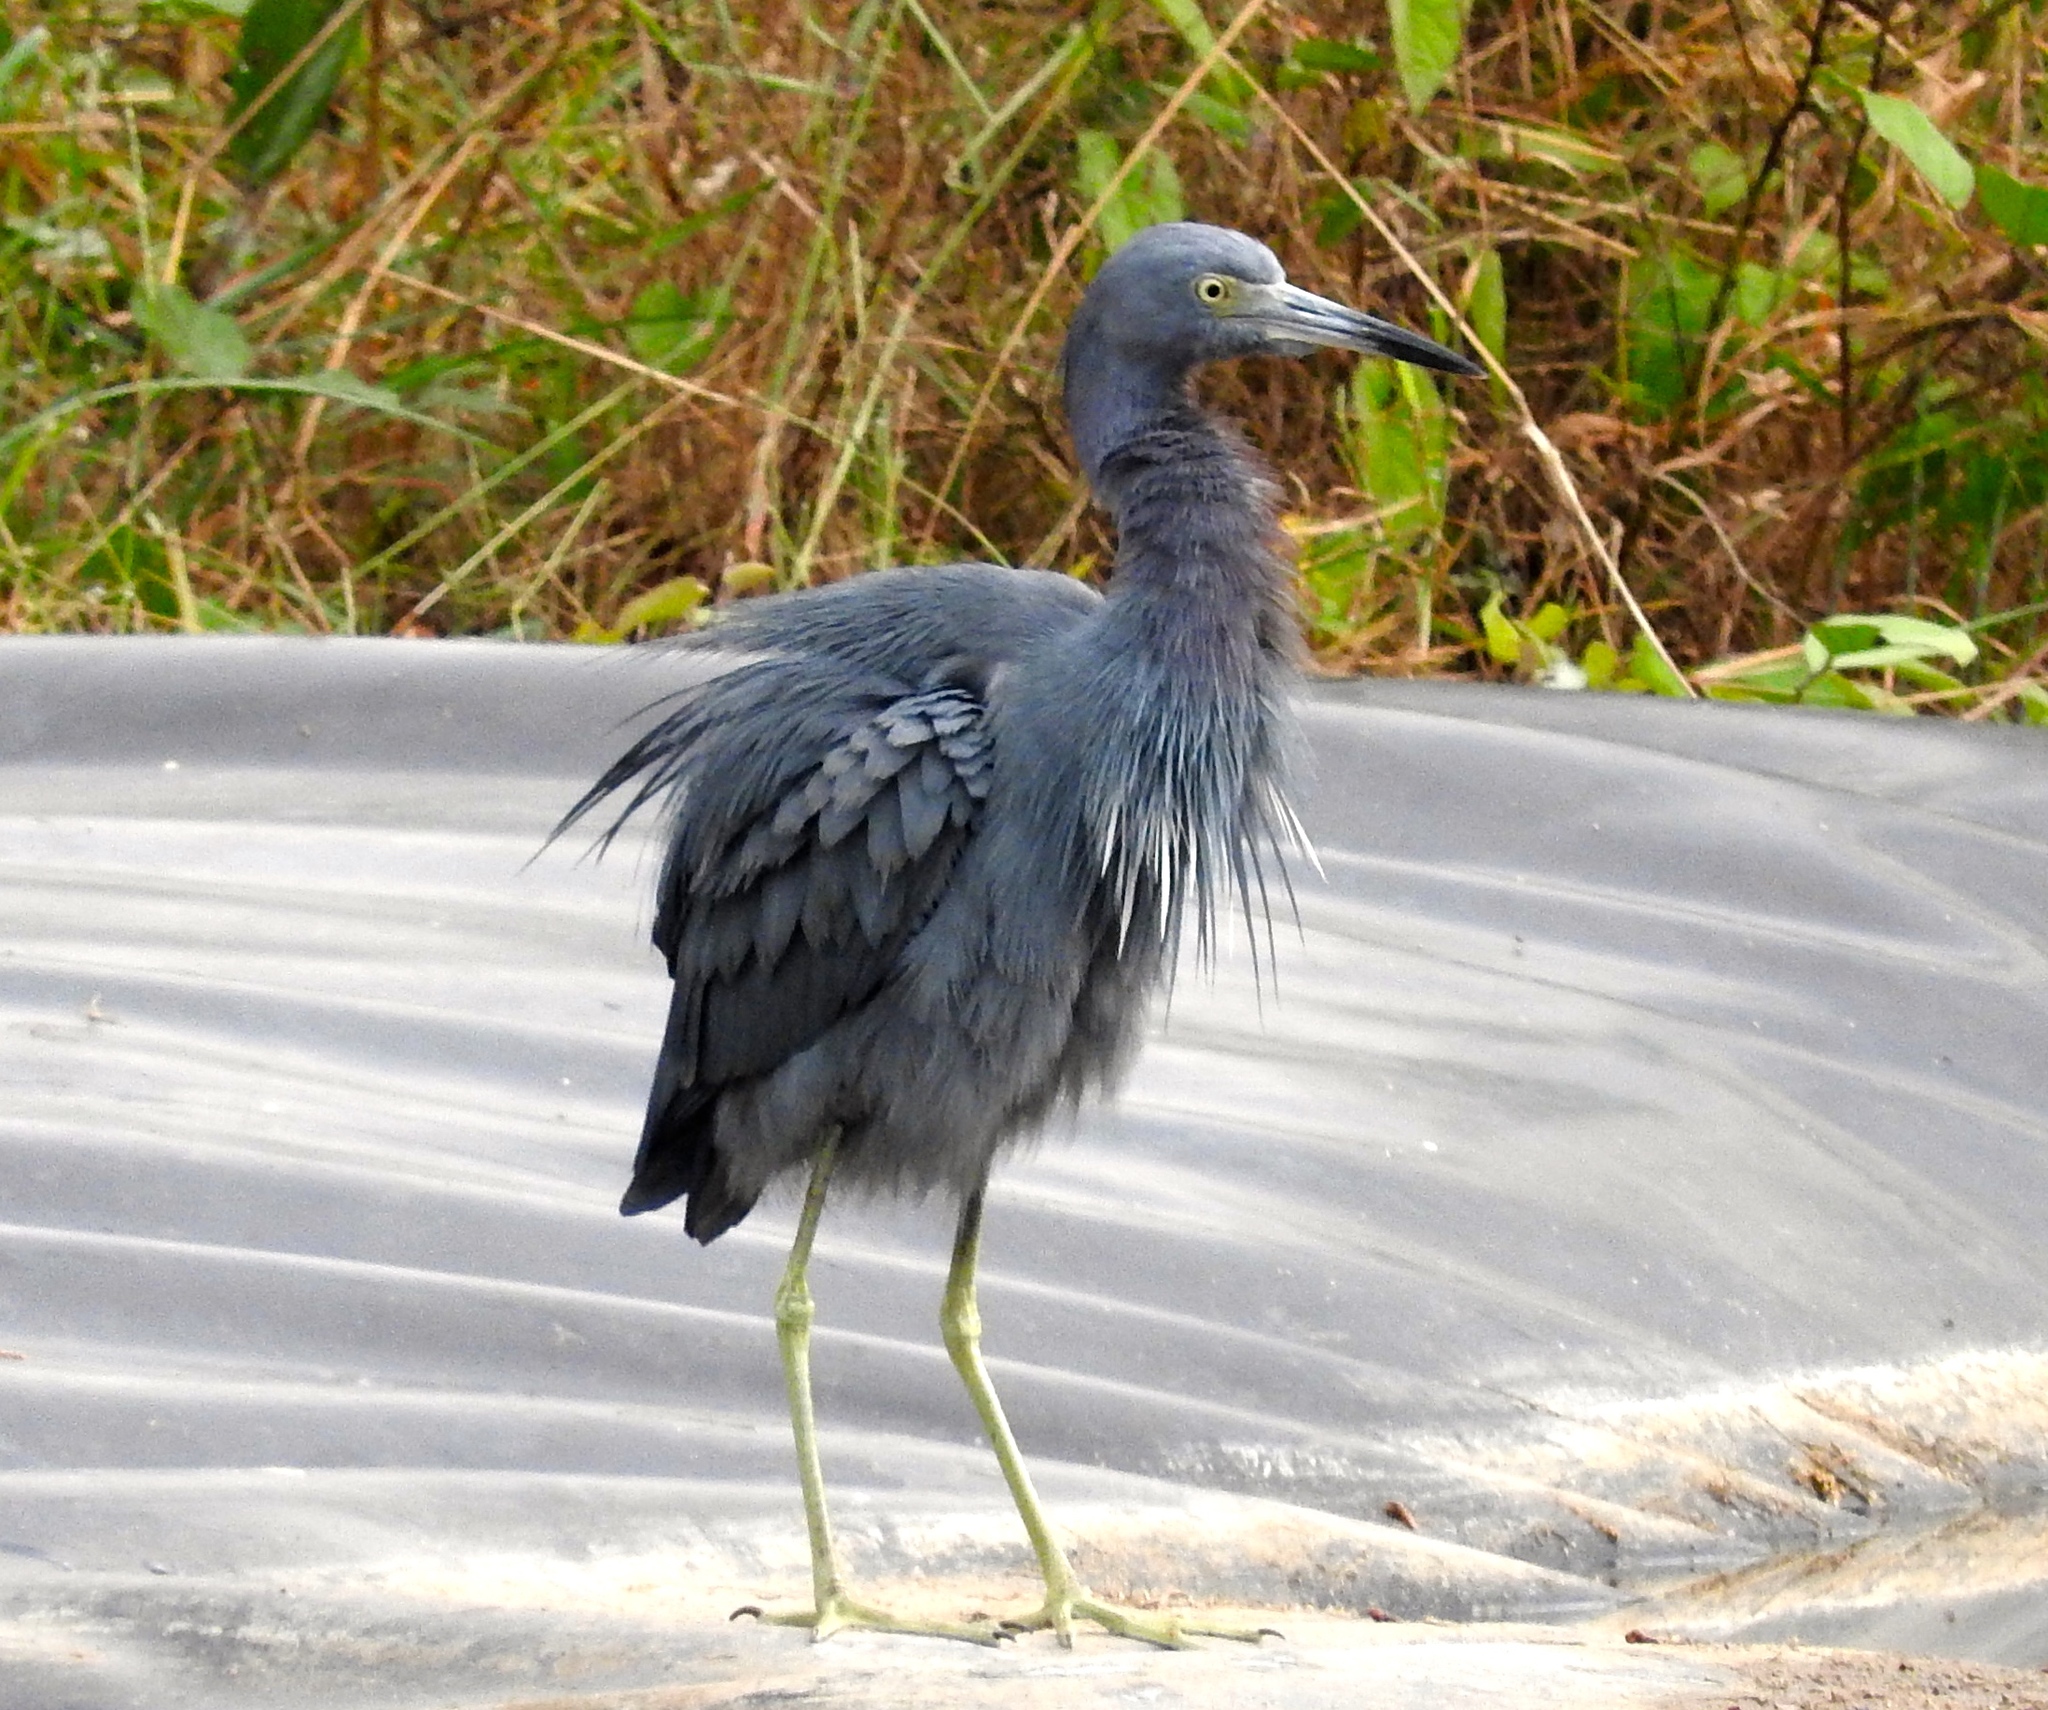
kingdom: Animalia
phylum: Chordata
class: Aves
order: Pelecaniformes
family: Ardeidae
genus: Egretta
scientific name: Egretta caerulea
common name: Little blue heron
